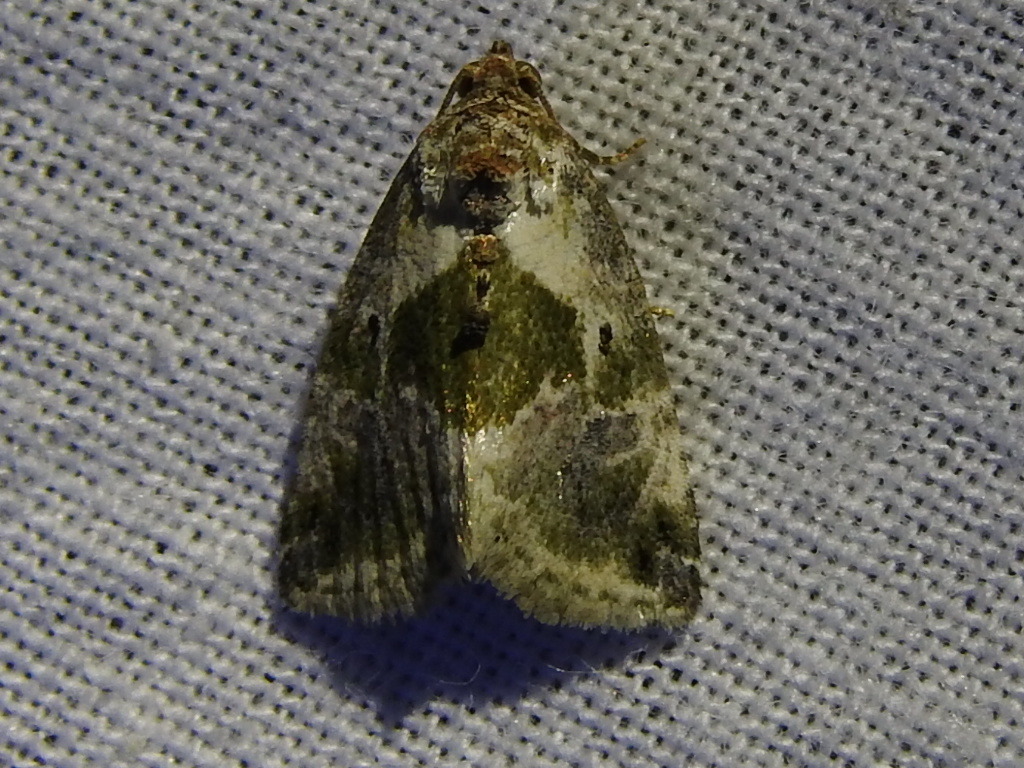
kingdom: Animalia
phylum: Arthropoda
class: Insecta
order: Lepidoptera
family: Noctuidae
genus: Maliattha
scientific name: Maliattha synochitis
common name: Black-dotted glyph
